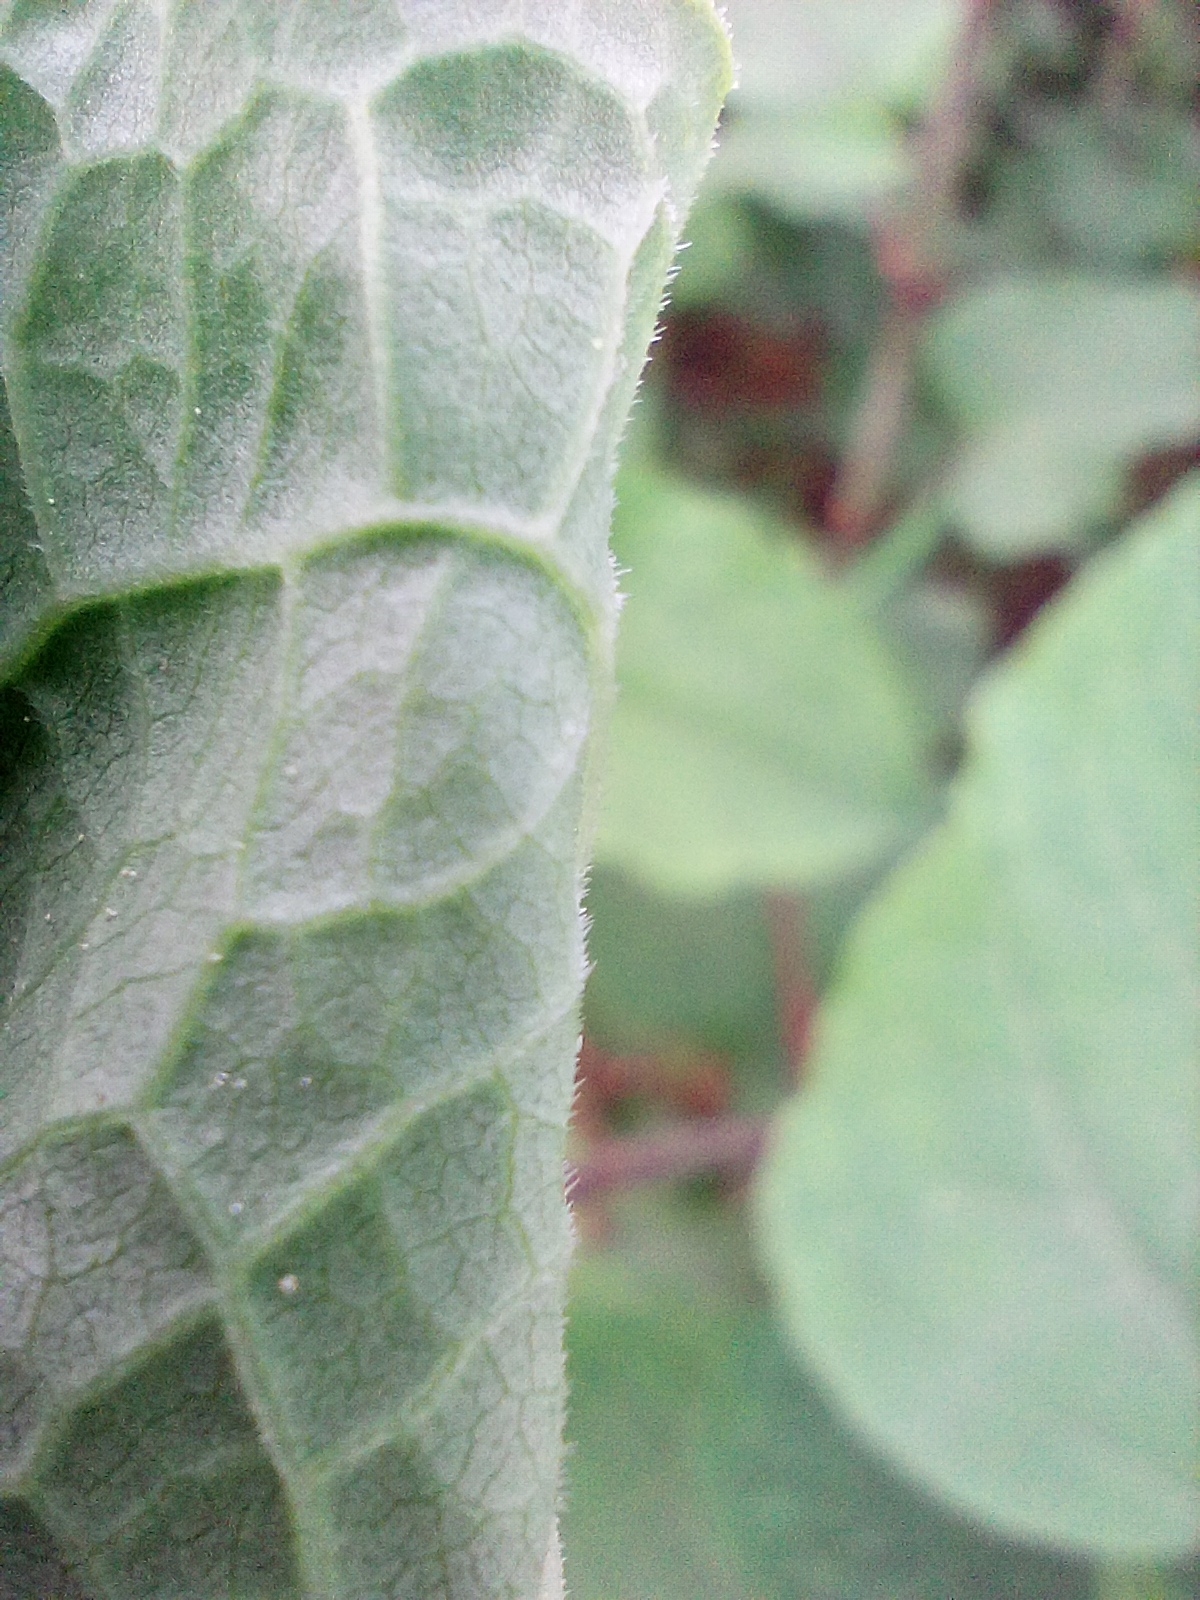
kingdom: Plantae
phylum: Tracheophyta
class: Magnoliopsida
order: Caryophyllales
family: Polygonaceae
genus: Reynoutria
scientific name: Reynoutria bohemica
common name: Bohemian knotweed
